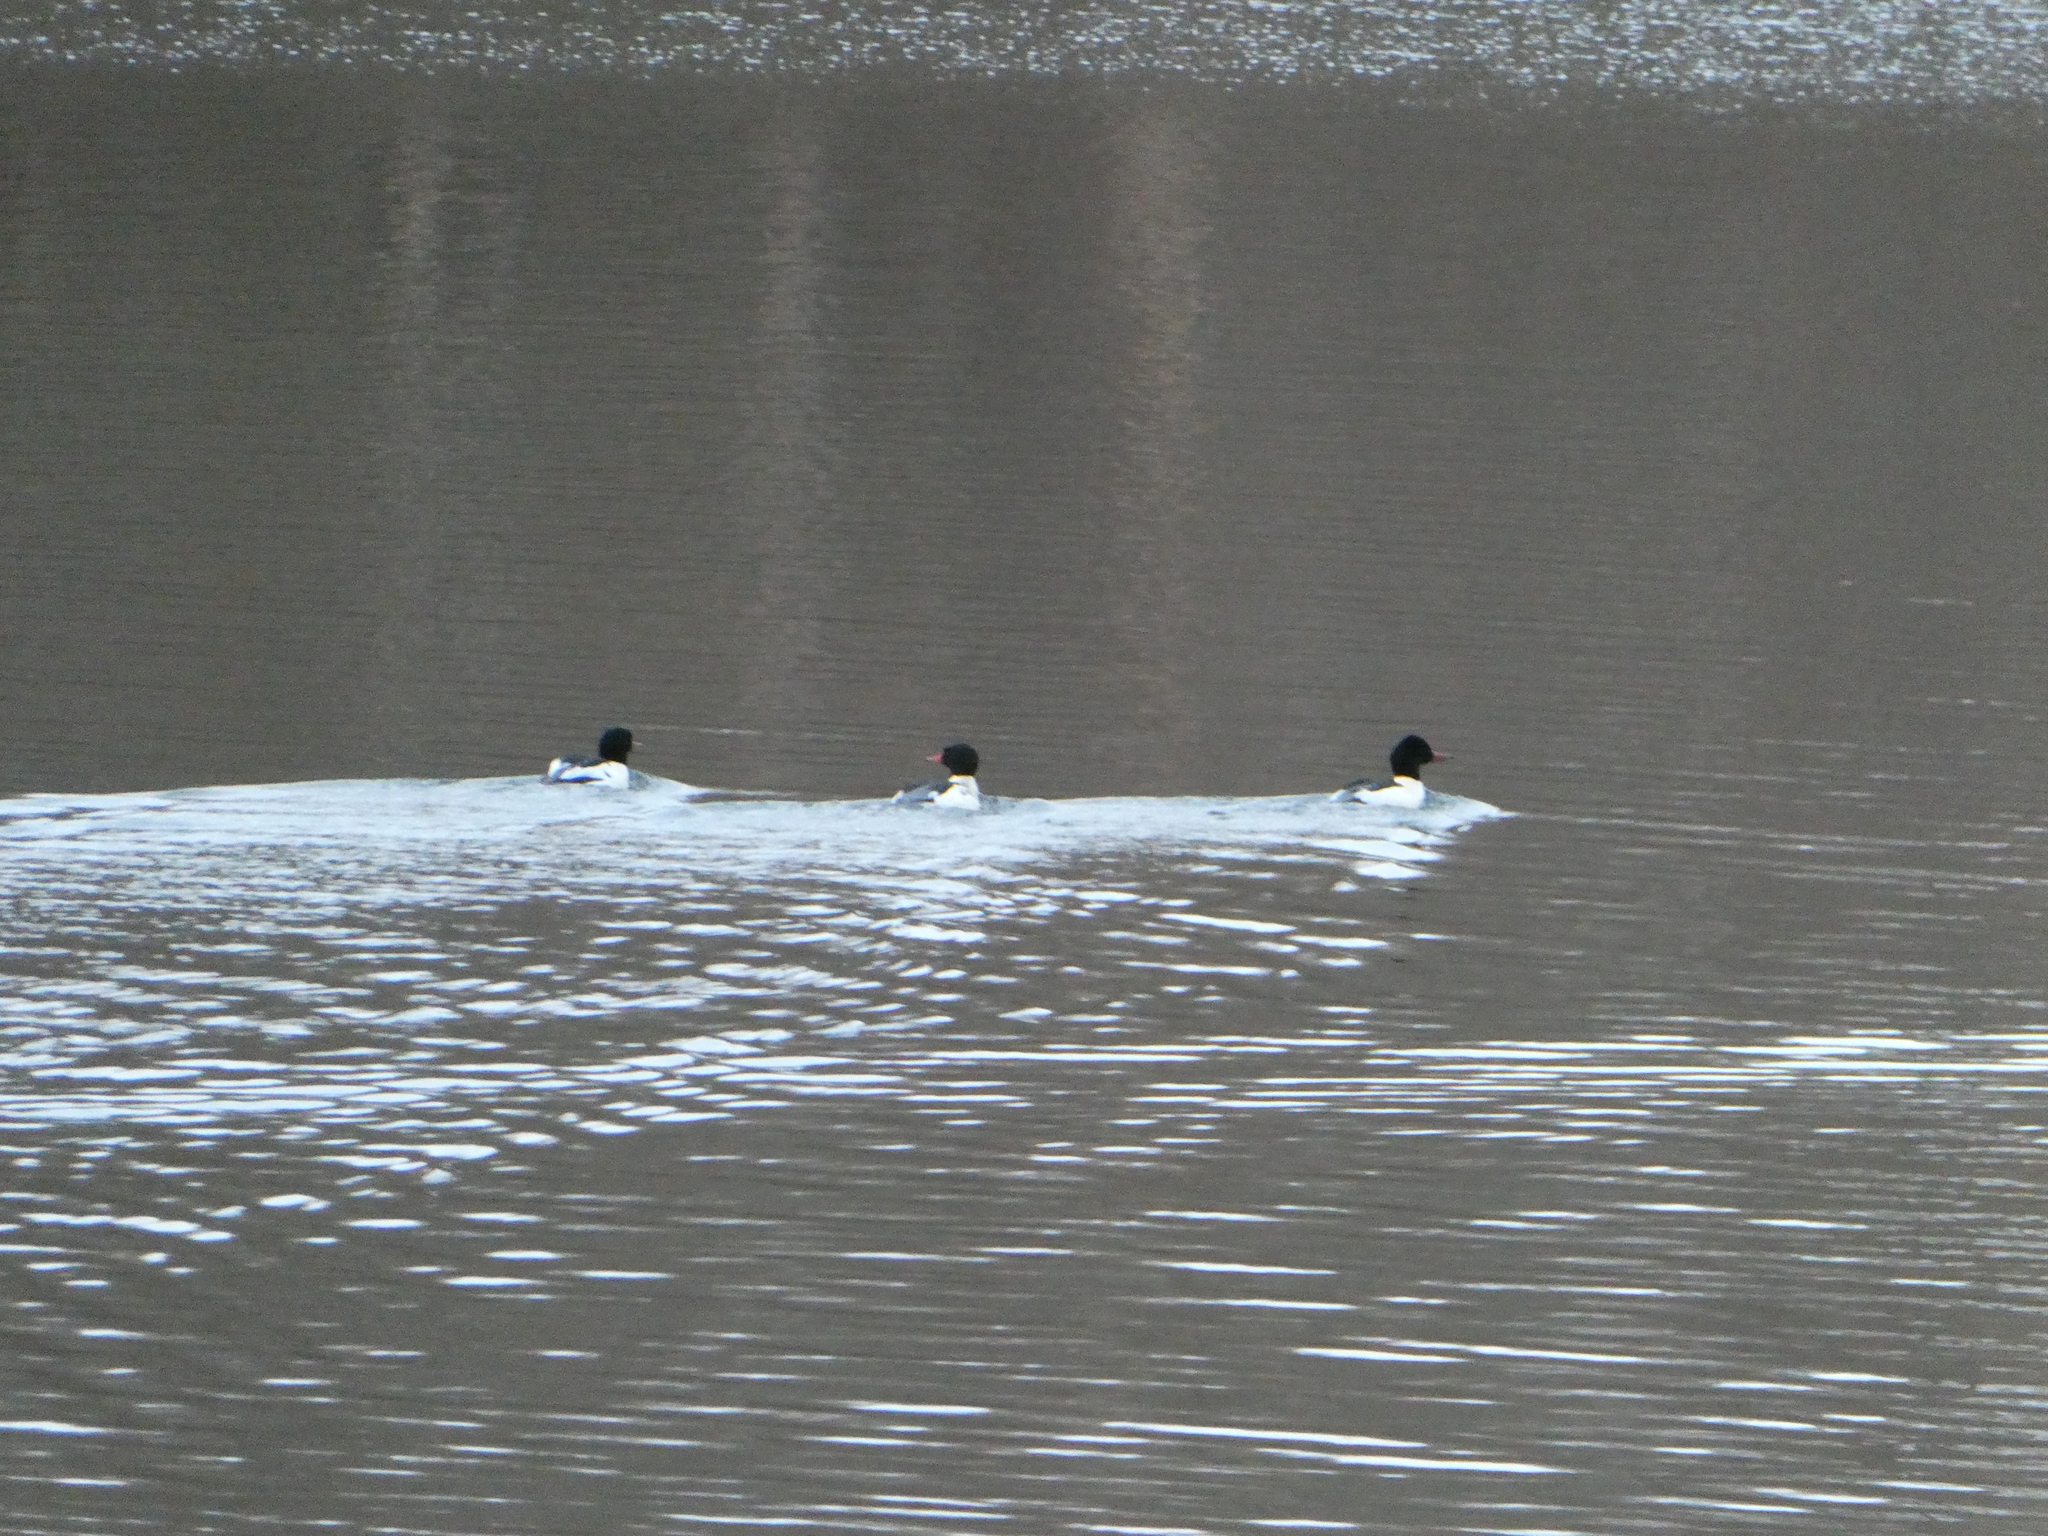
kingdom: Animalia
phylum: Chordata
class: Aves
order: Anseriformes
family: Anatidae
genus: Mergus
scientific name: Mergus merganser
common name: Common merganser
